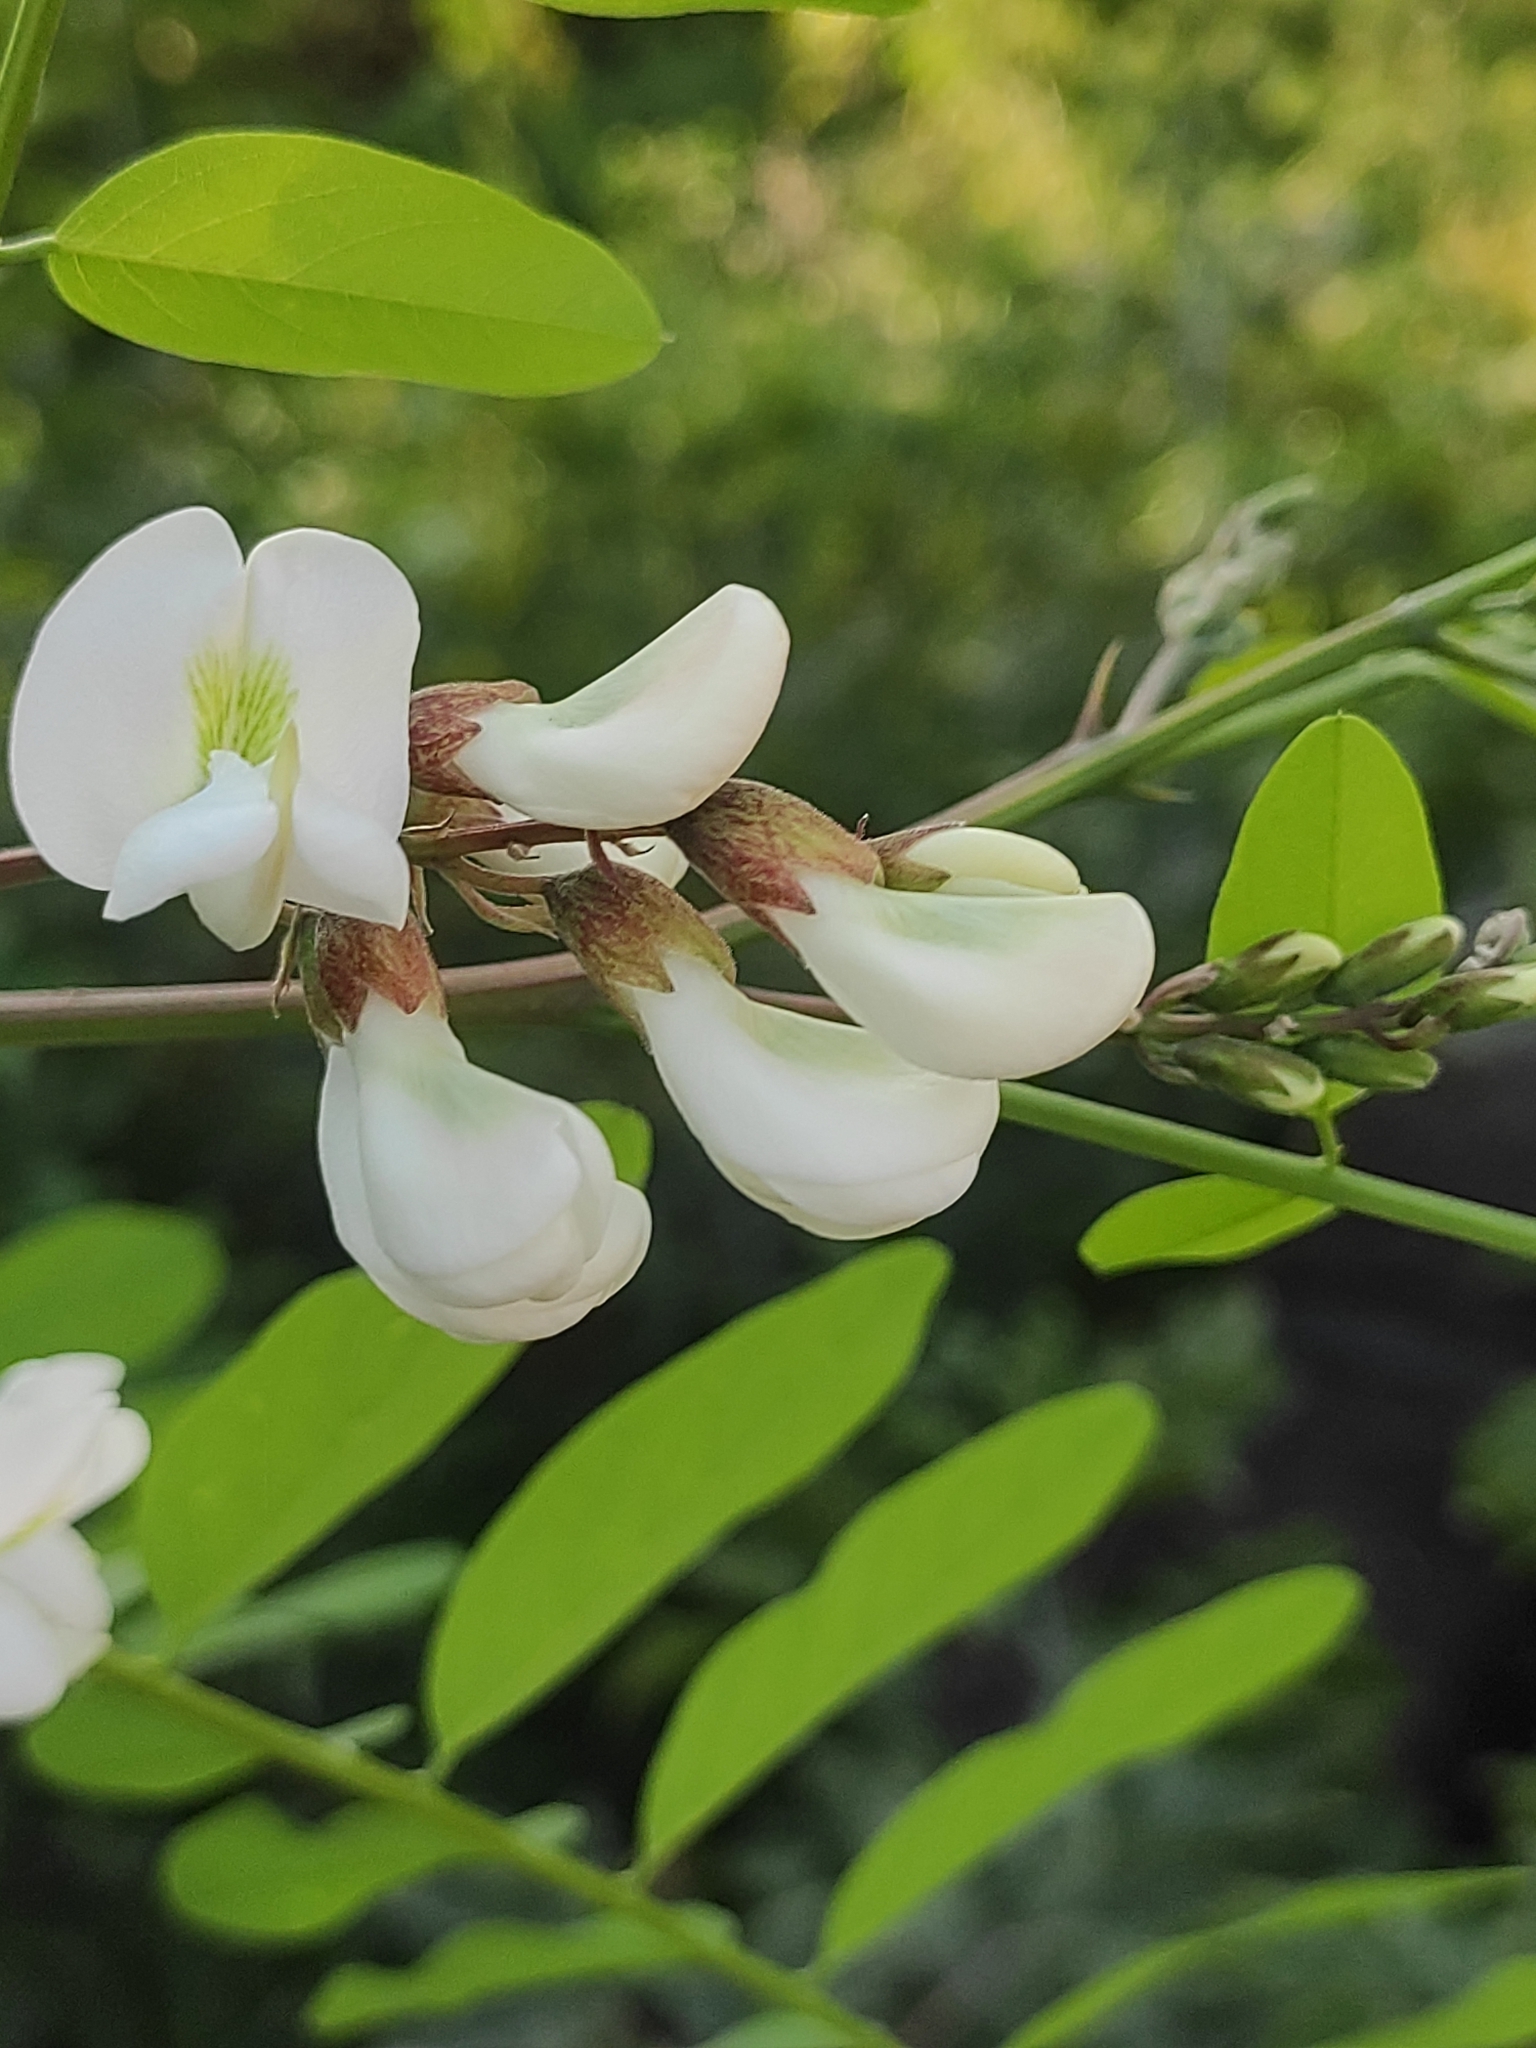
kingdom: Plantae
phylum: Tracheophyta
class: Magnoliopsida
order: Fabales
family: Fabaceae
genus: Robinia
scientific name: Robinia pseudoacacia
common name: Black locust
